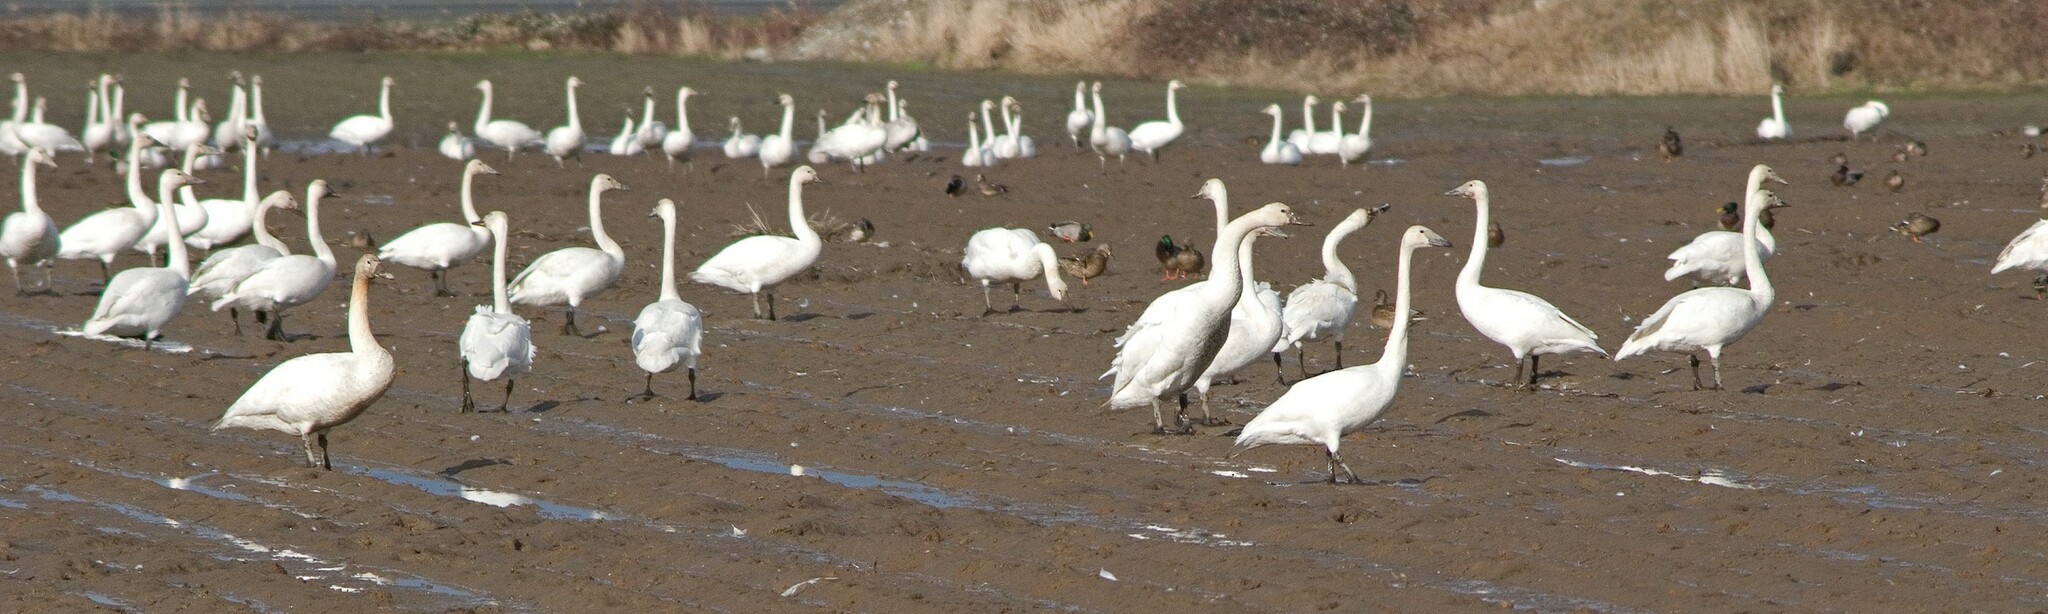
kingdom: Animalia
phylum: Chordata
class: Aves
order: Anseriformes
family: Anatidae
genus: Cygnus
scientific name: Cygnus buccinator
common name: Trumpeter swan
